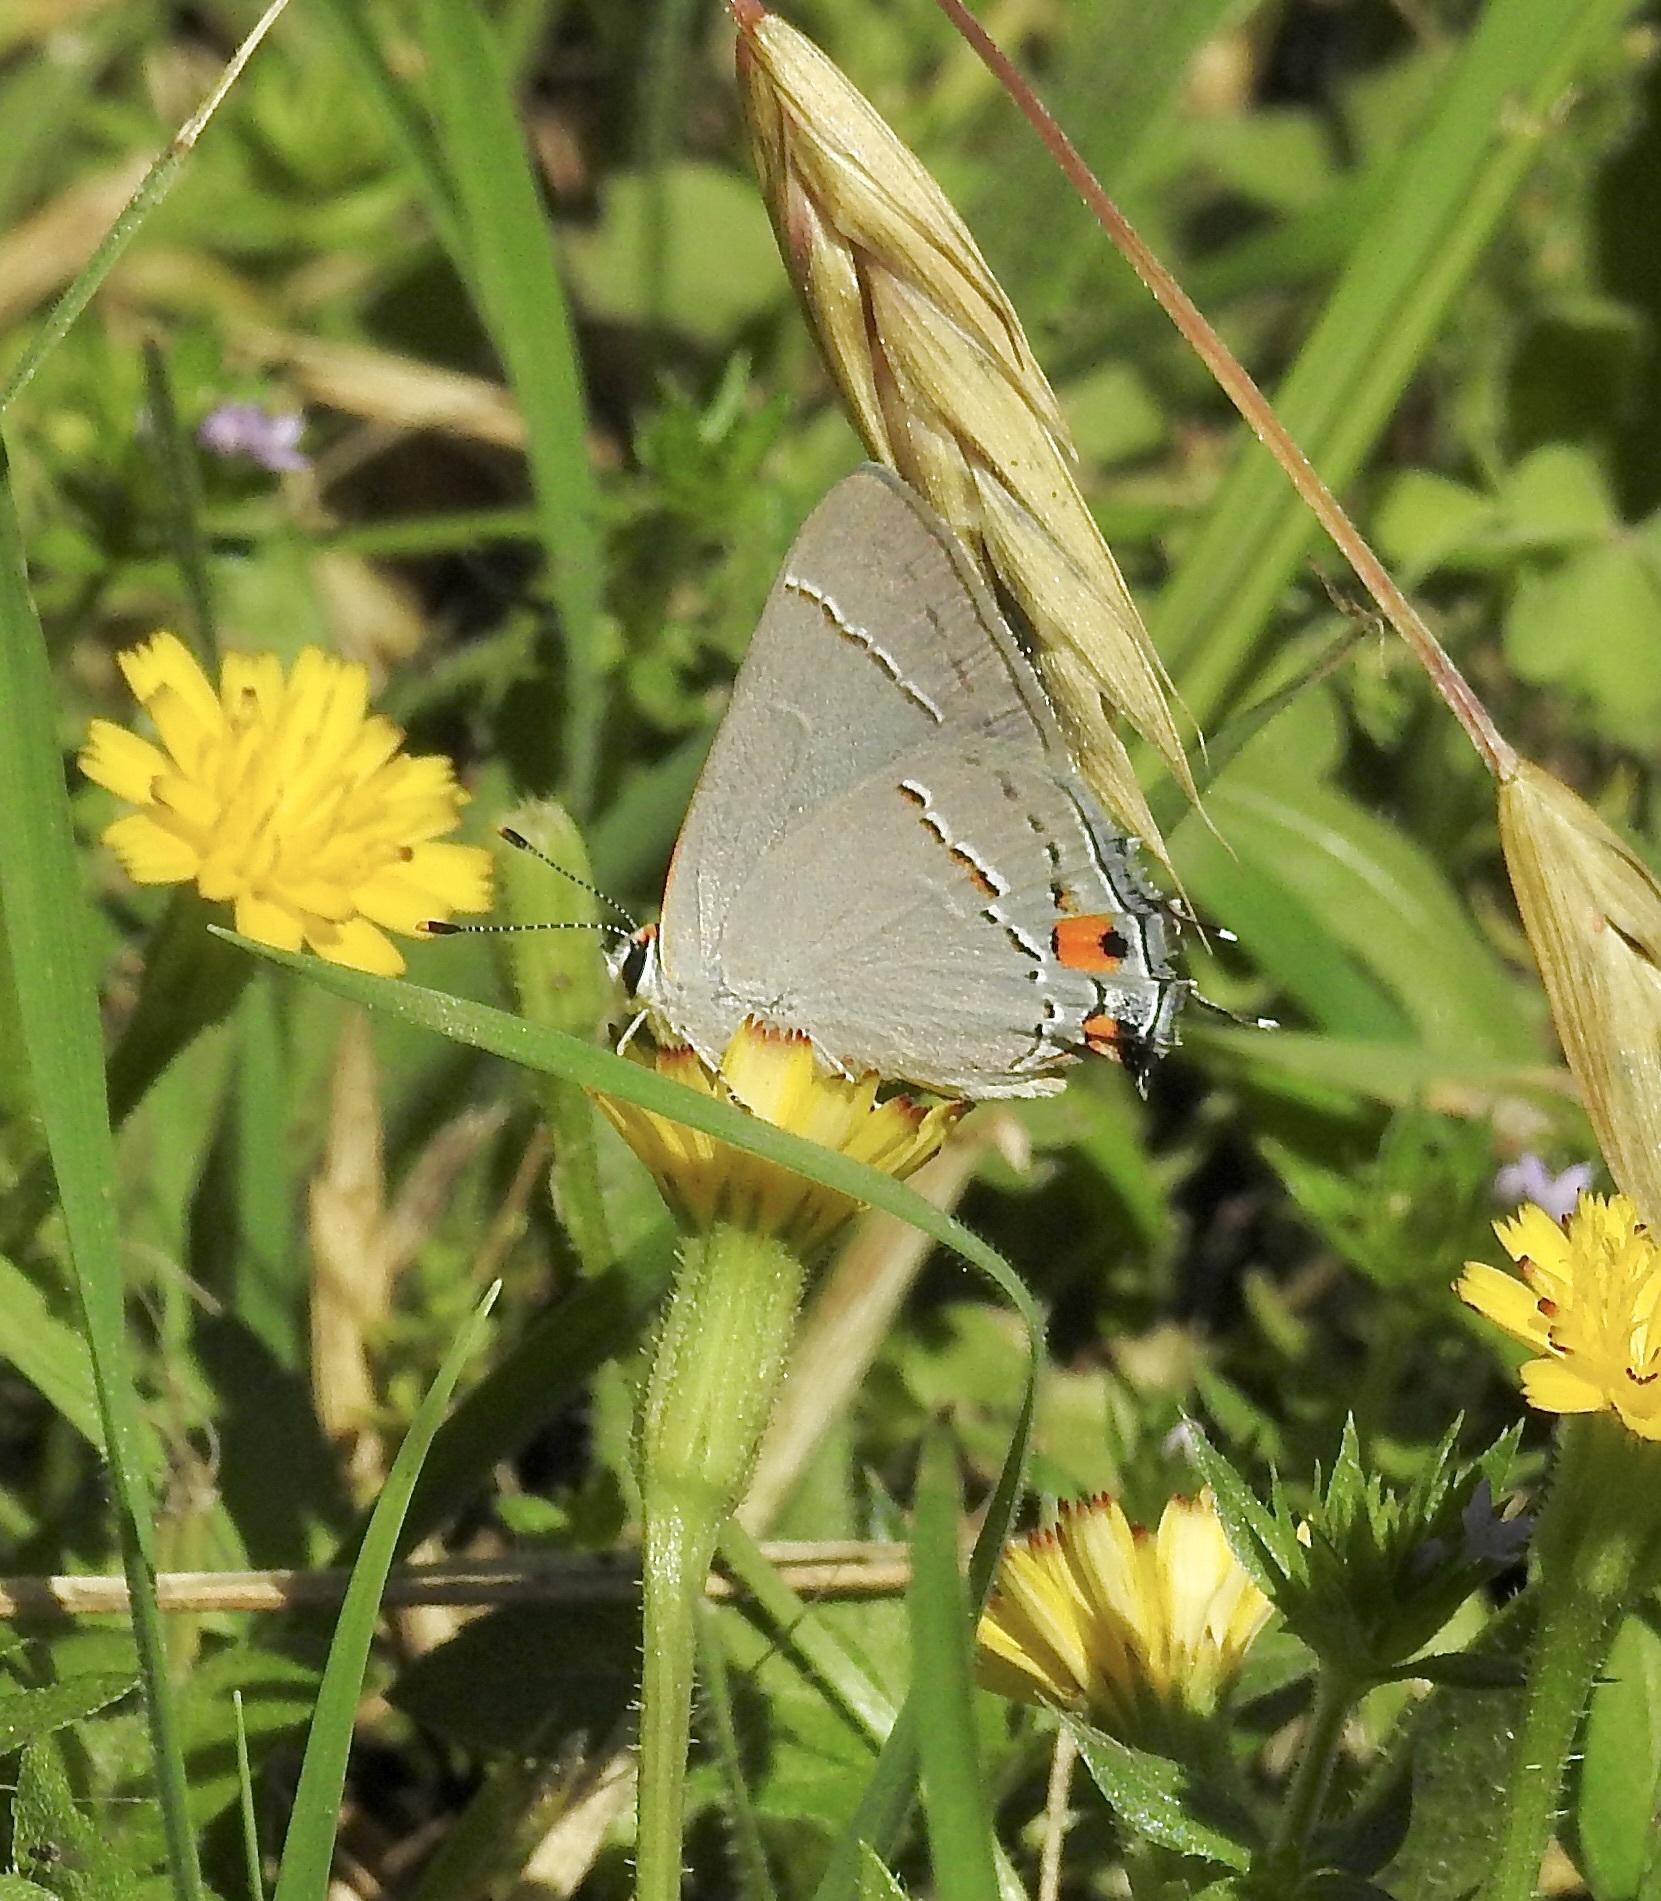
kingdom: Animalia
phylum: Arthropoda
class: Insecta
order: Lepidoptera
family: Lycaenidae
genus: Strymon
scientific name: Strymon melinus
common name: Gray hairstreak
